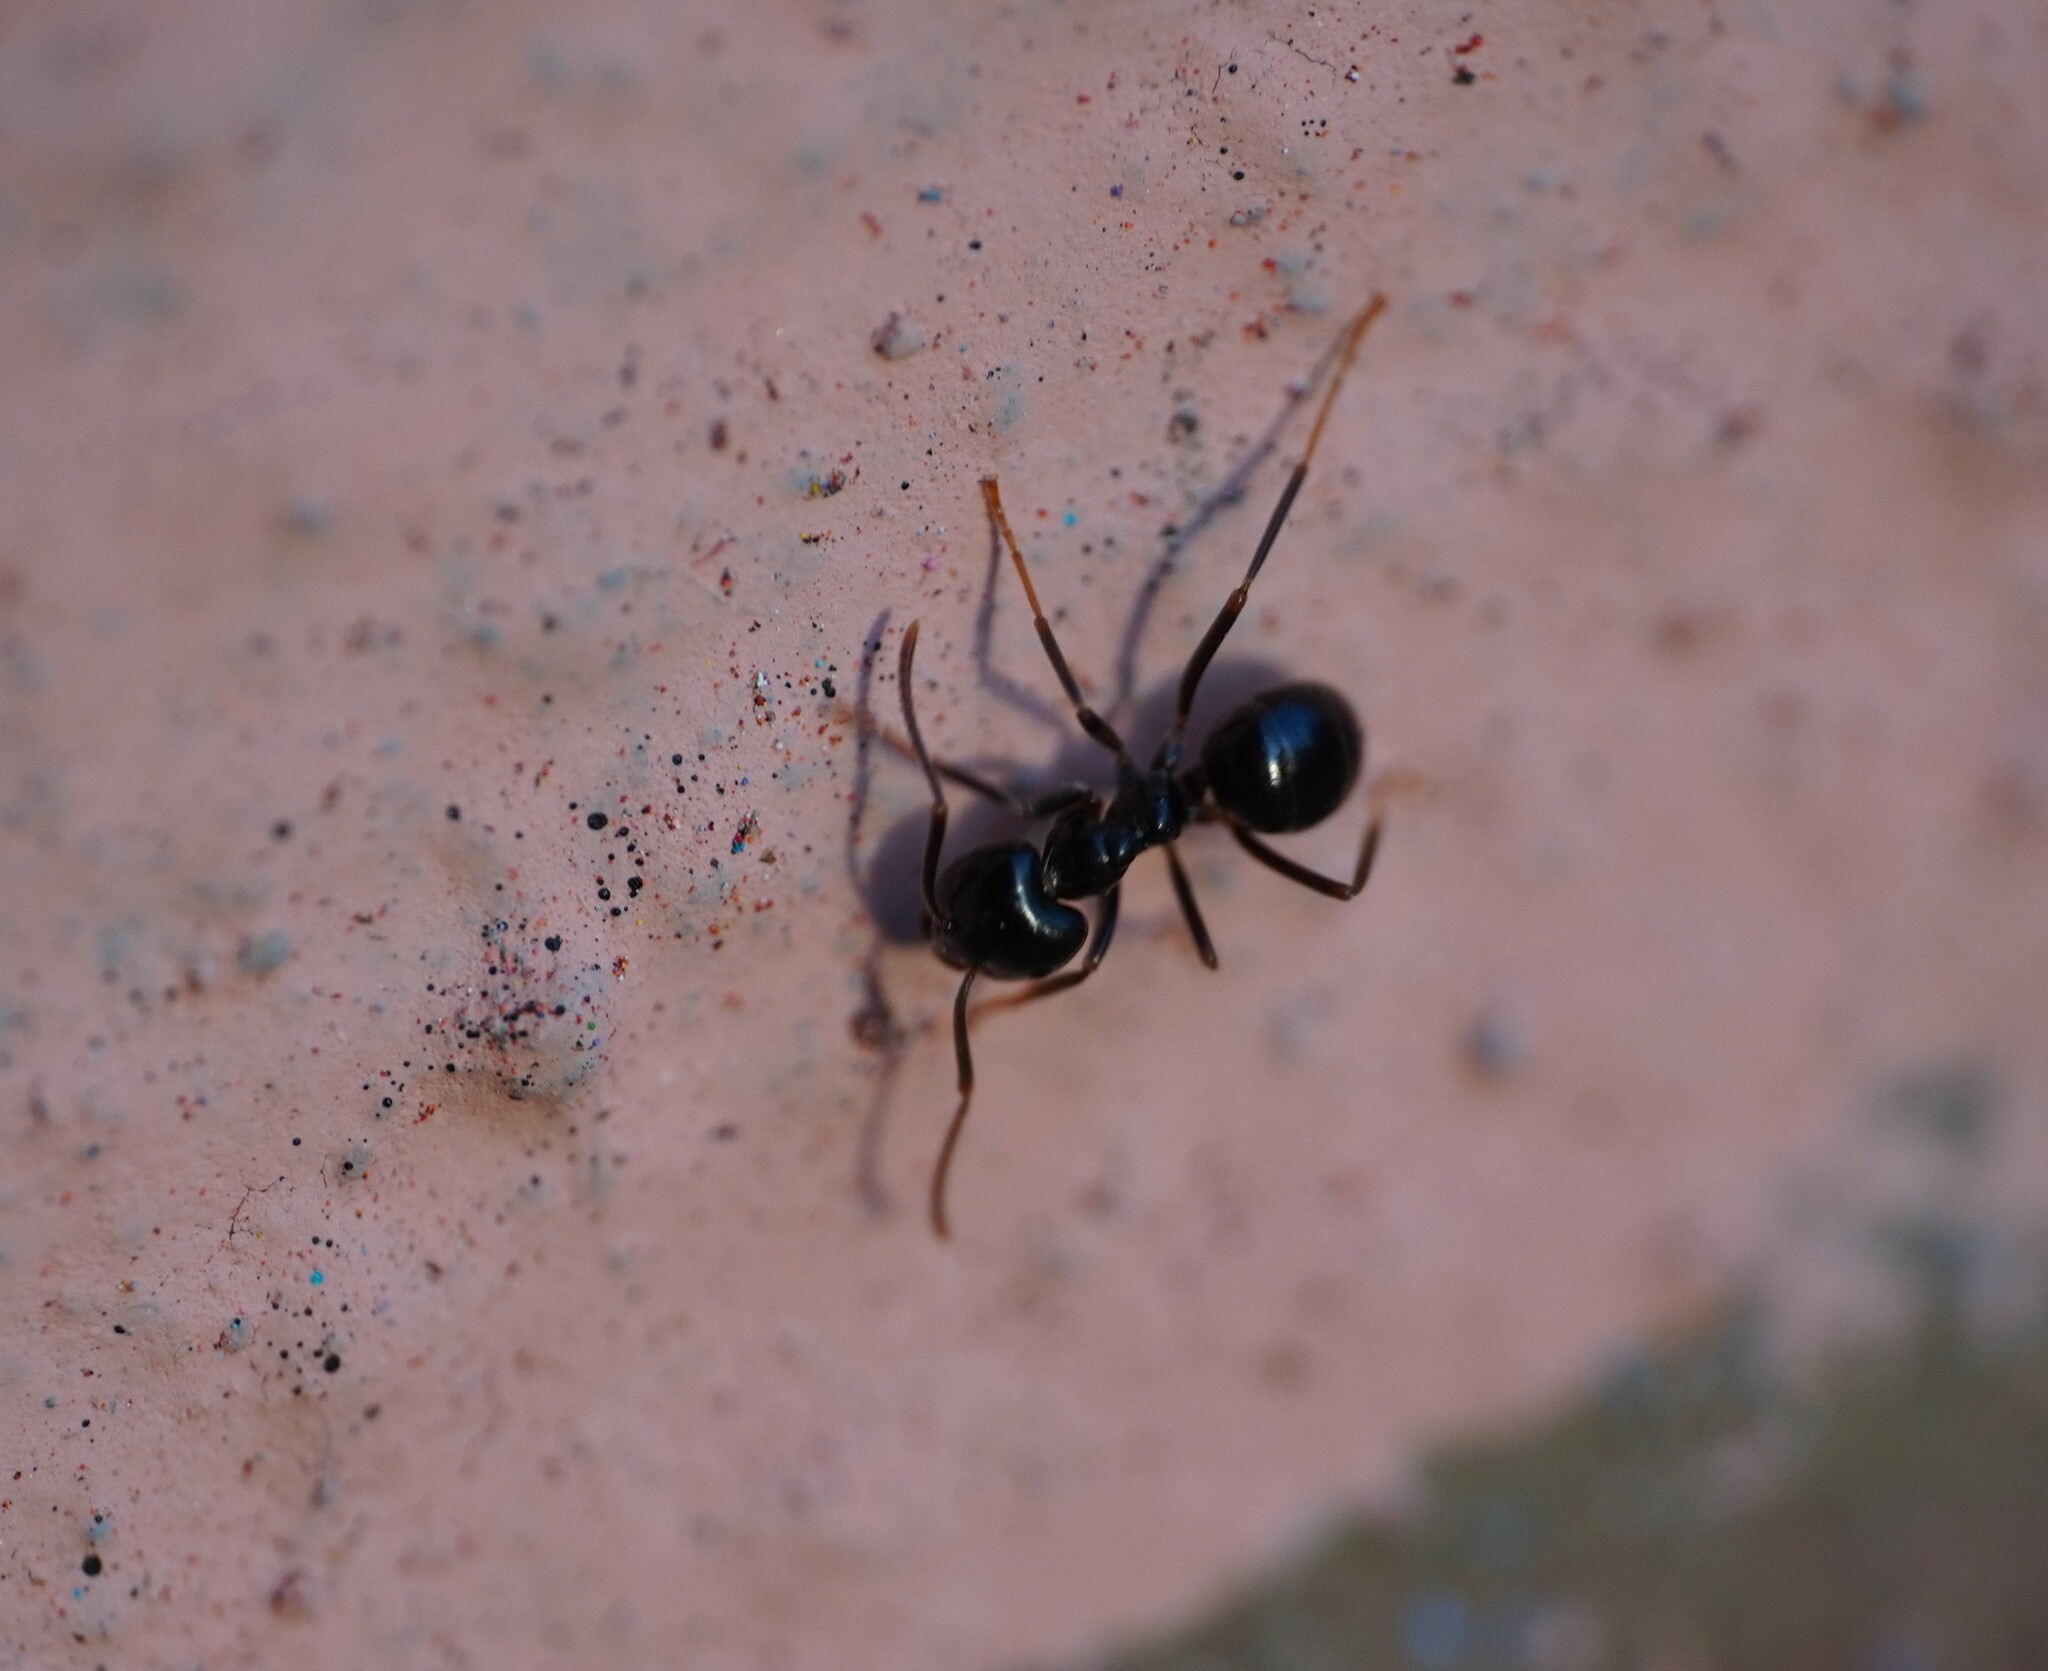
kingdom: Animalia
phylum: Arthropoda
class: Insecta
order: Hymenoptera
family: Formicidae
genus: Lasius
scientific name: Lasius fuliginosus
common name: Jet ant
